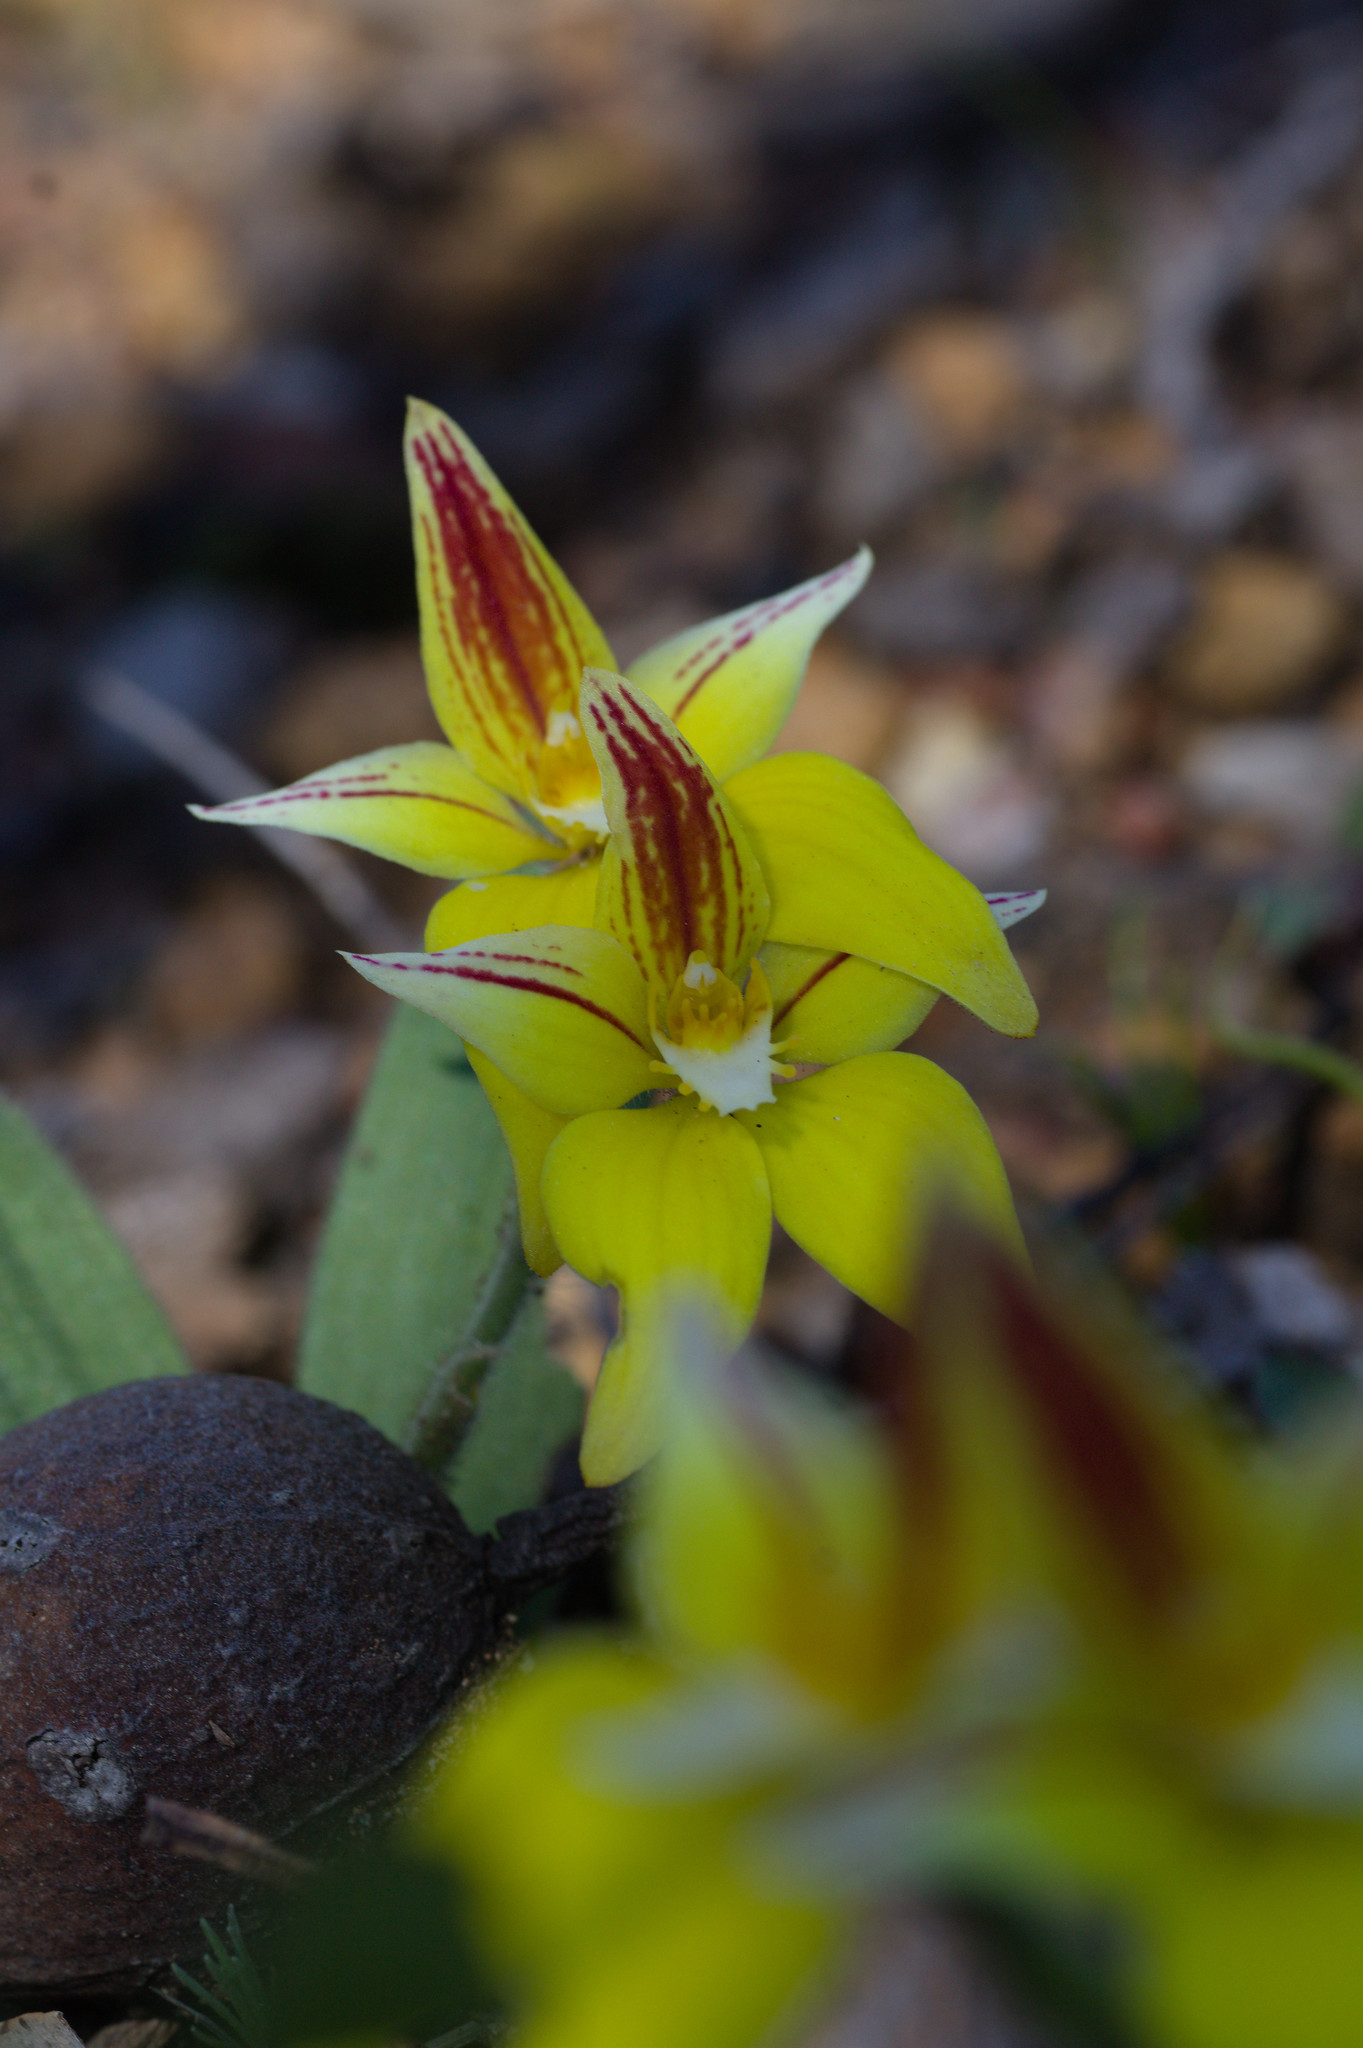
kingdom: Plantae
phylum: Tracheophyta
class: Liliopsida
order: Asparagales
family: Orchidaceae
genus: Caladenia
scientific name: Caladenia flava
